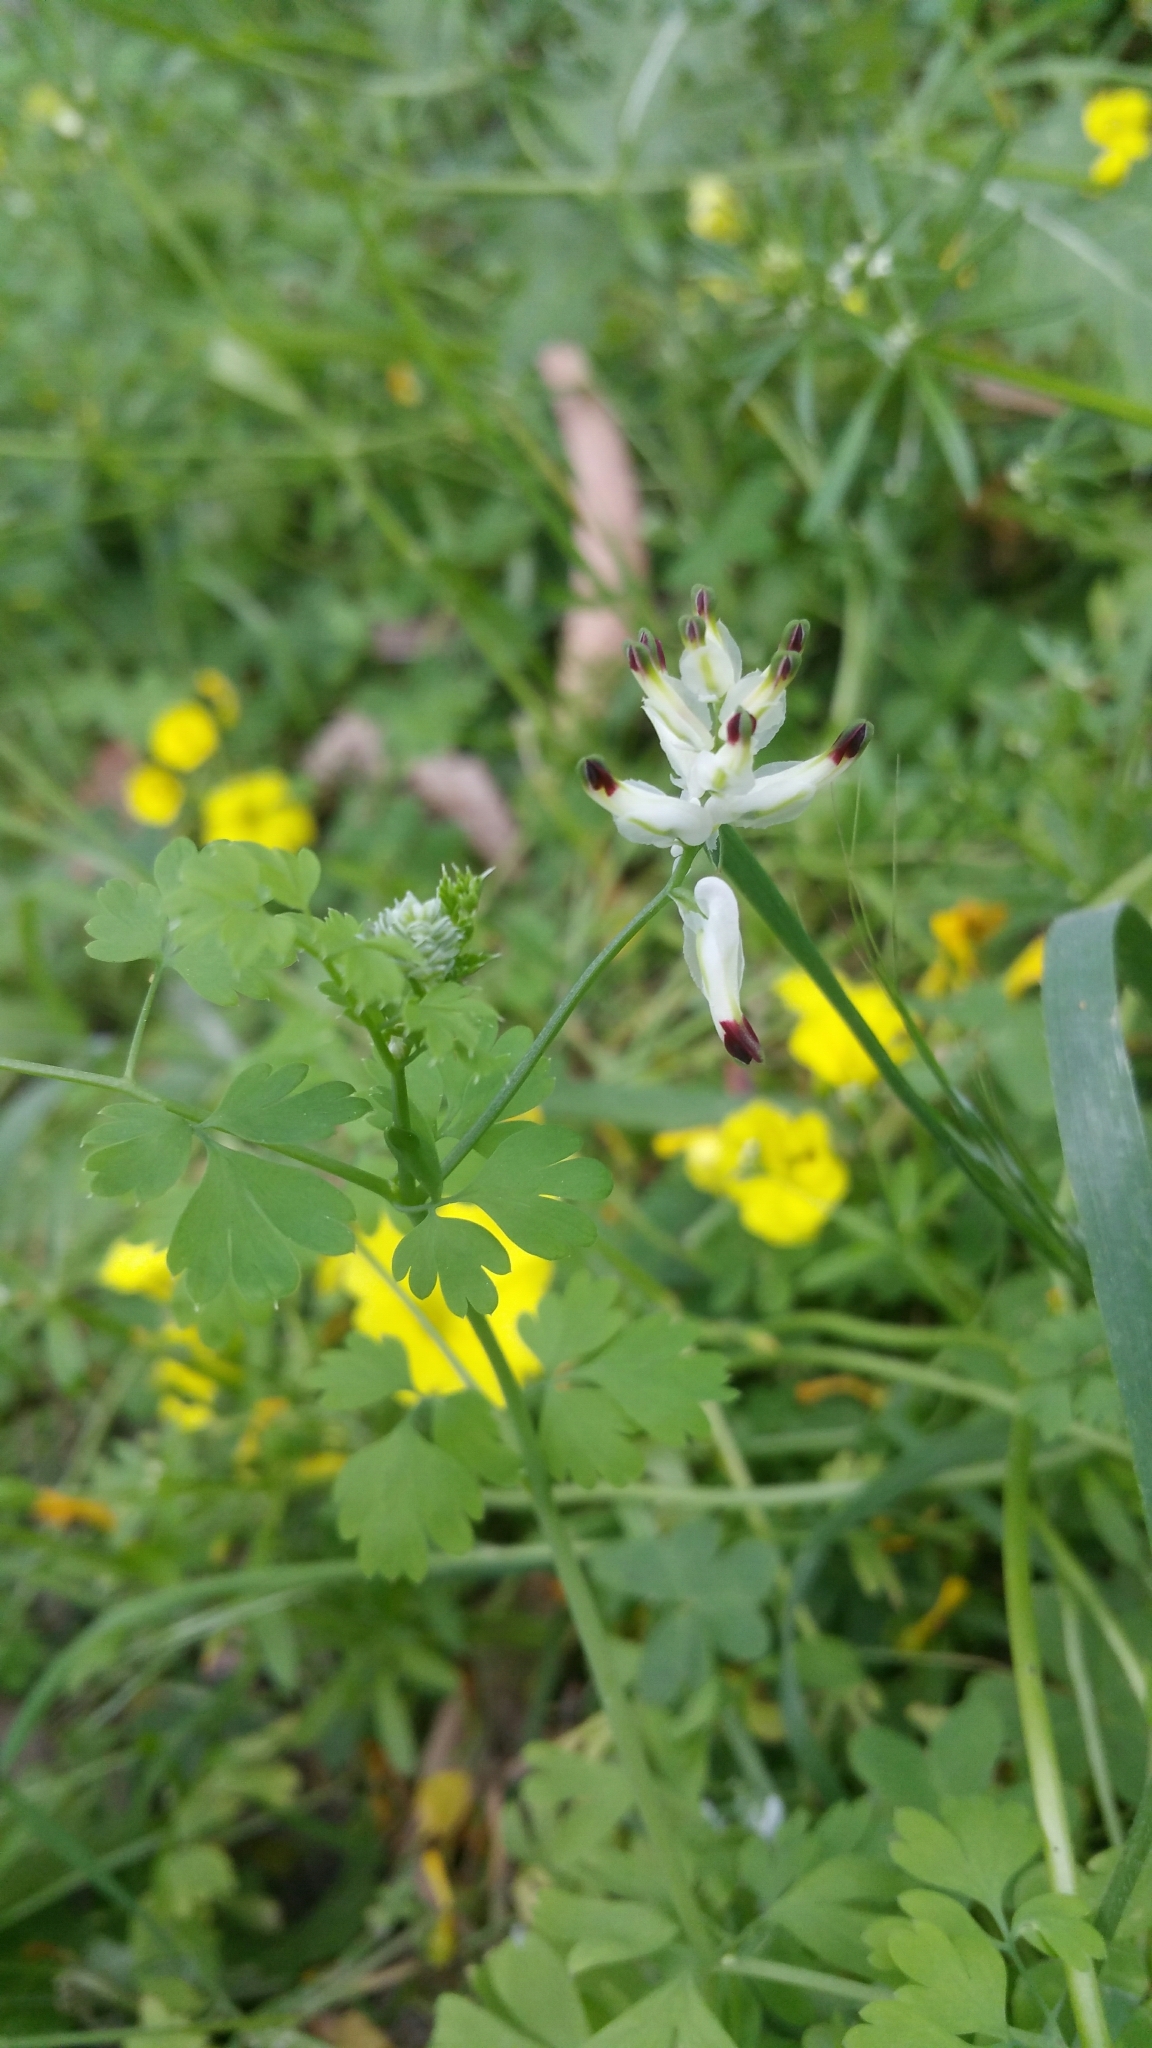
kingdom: Plantae
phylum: Tracheophyta
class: Magnoliopsida
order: Ranunculales
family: Papaveraceae
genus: Fumaria
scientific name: Fumaria capreolata
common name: White ramping-fumitory
